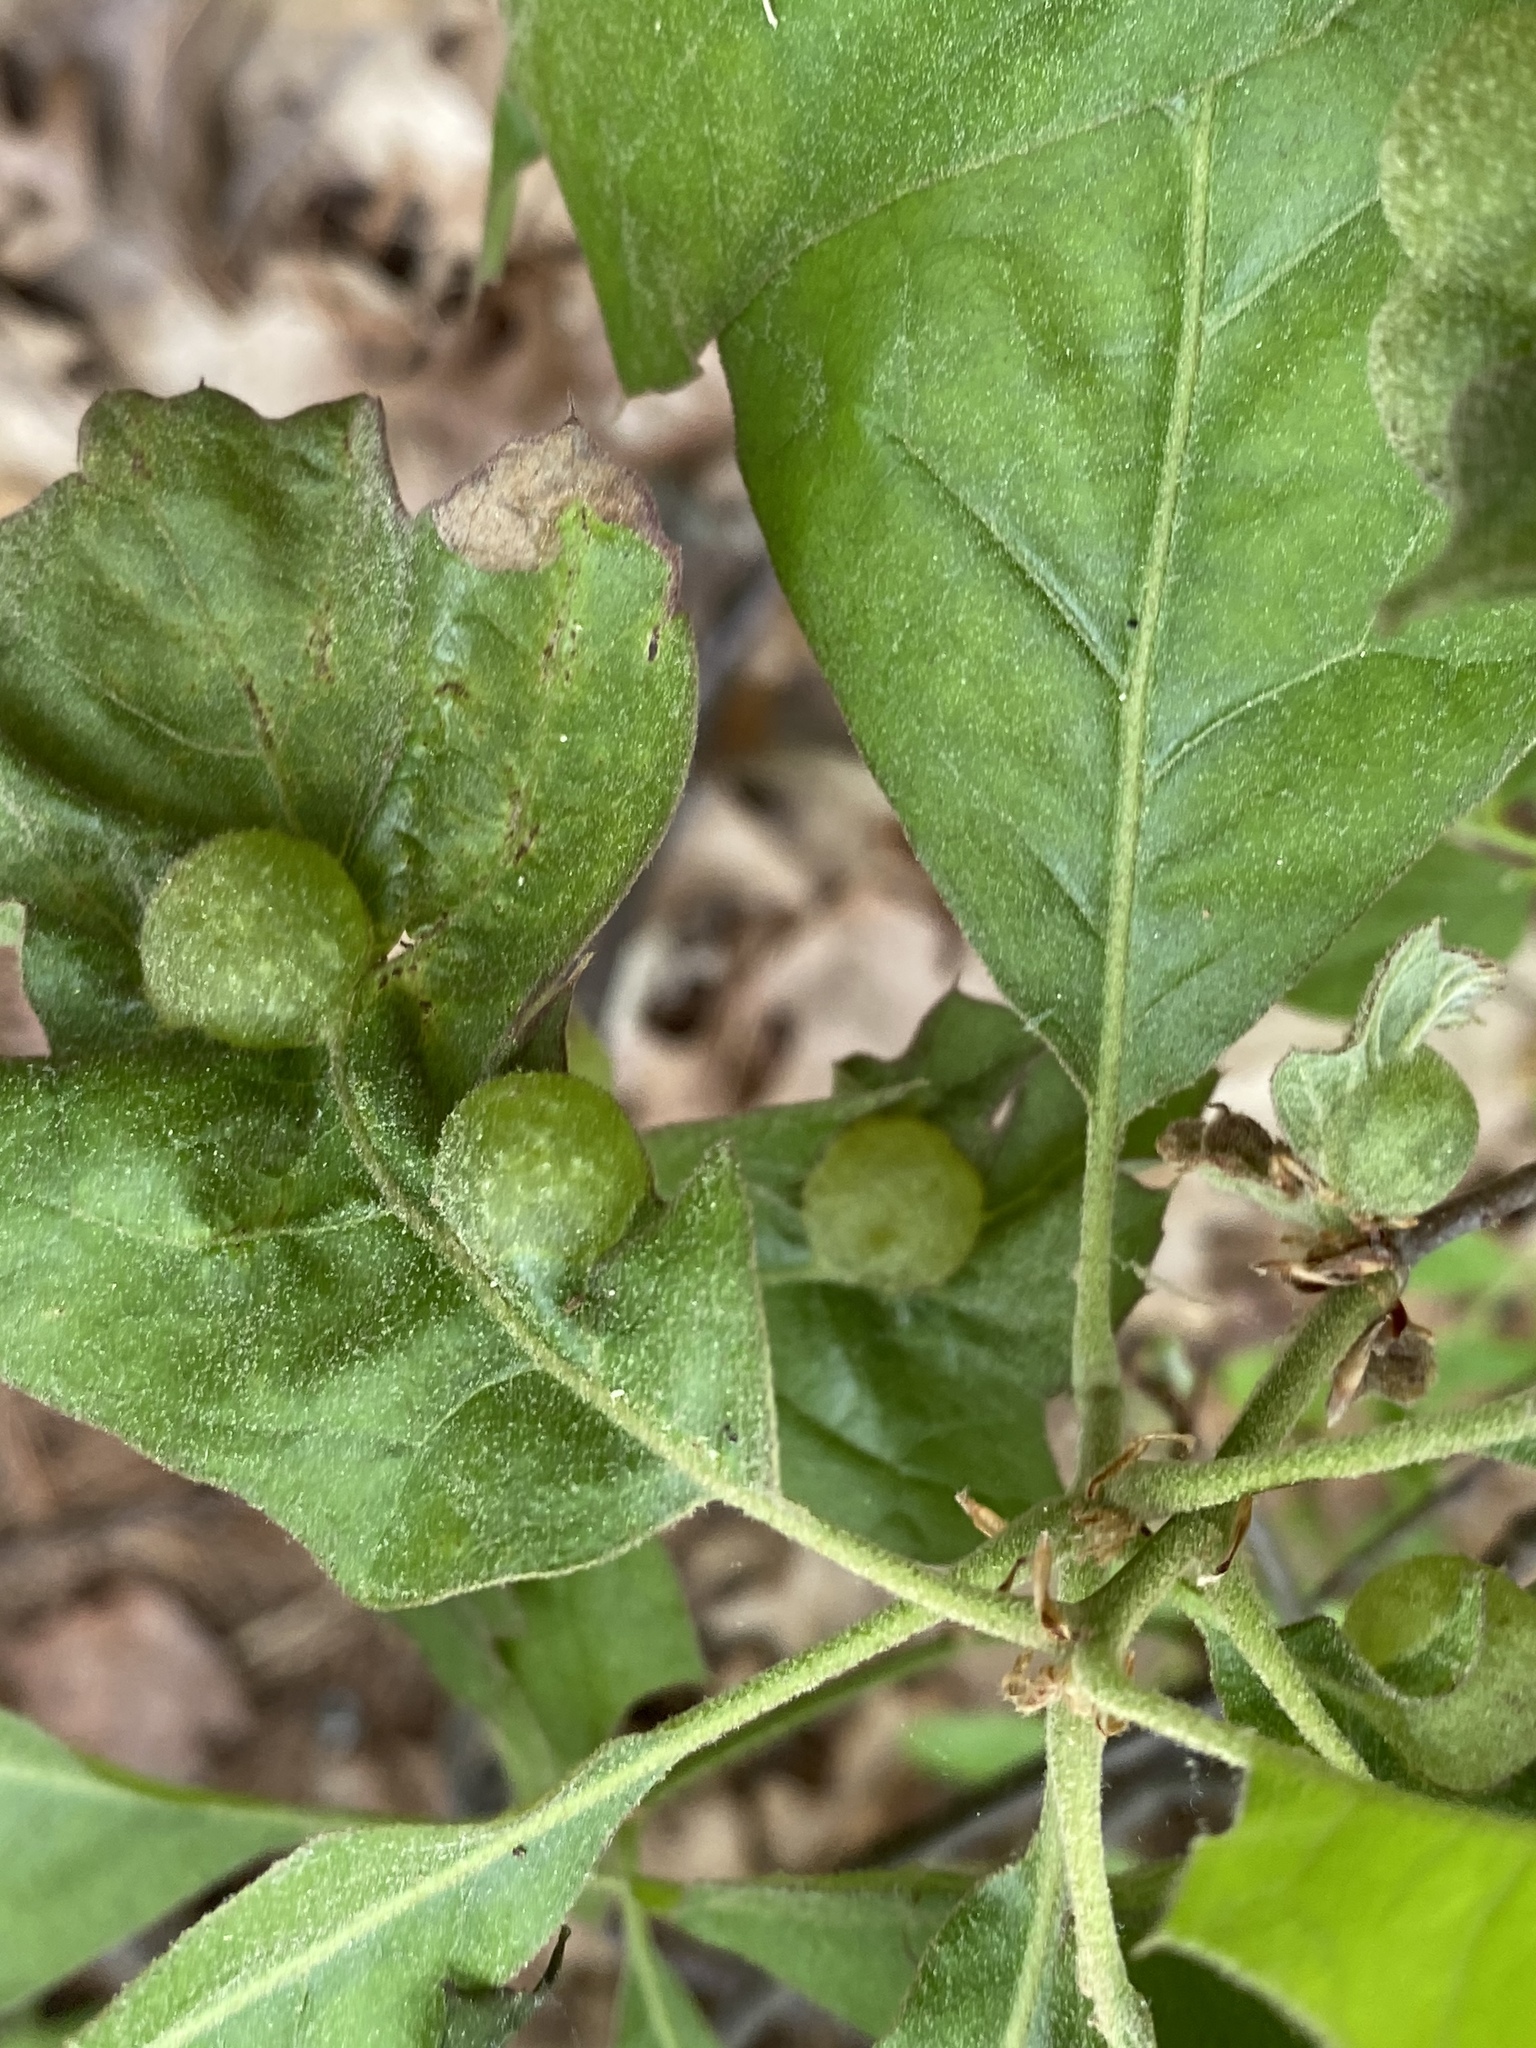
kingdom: Animalia
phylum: Arthropoda
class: Insecta
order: Hymenoptera
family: Cynipidae
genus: Dryocosmus
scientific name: Dryocosmus quercuspalustris
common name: Succulent oak gall wasp
